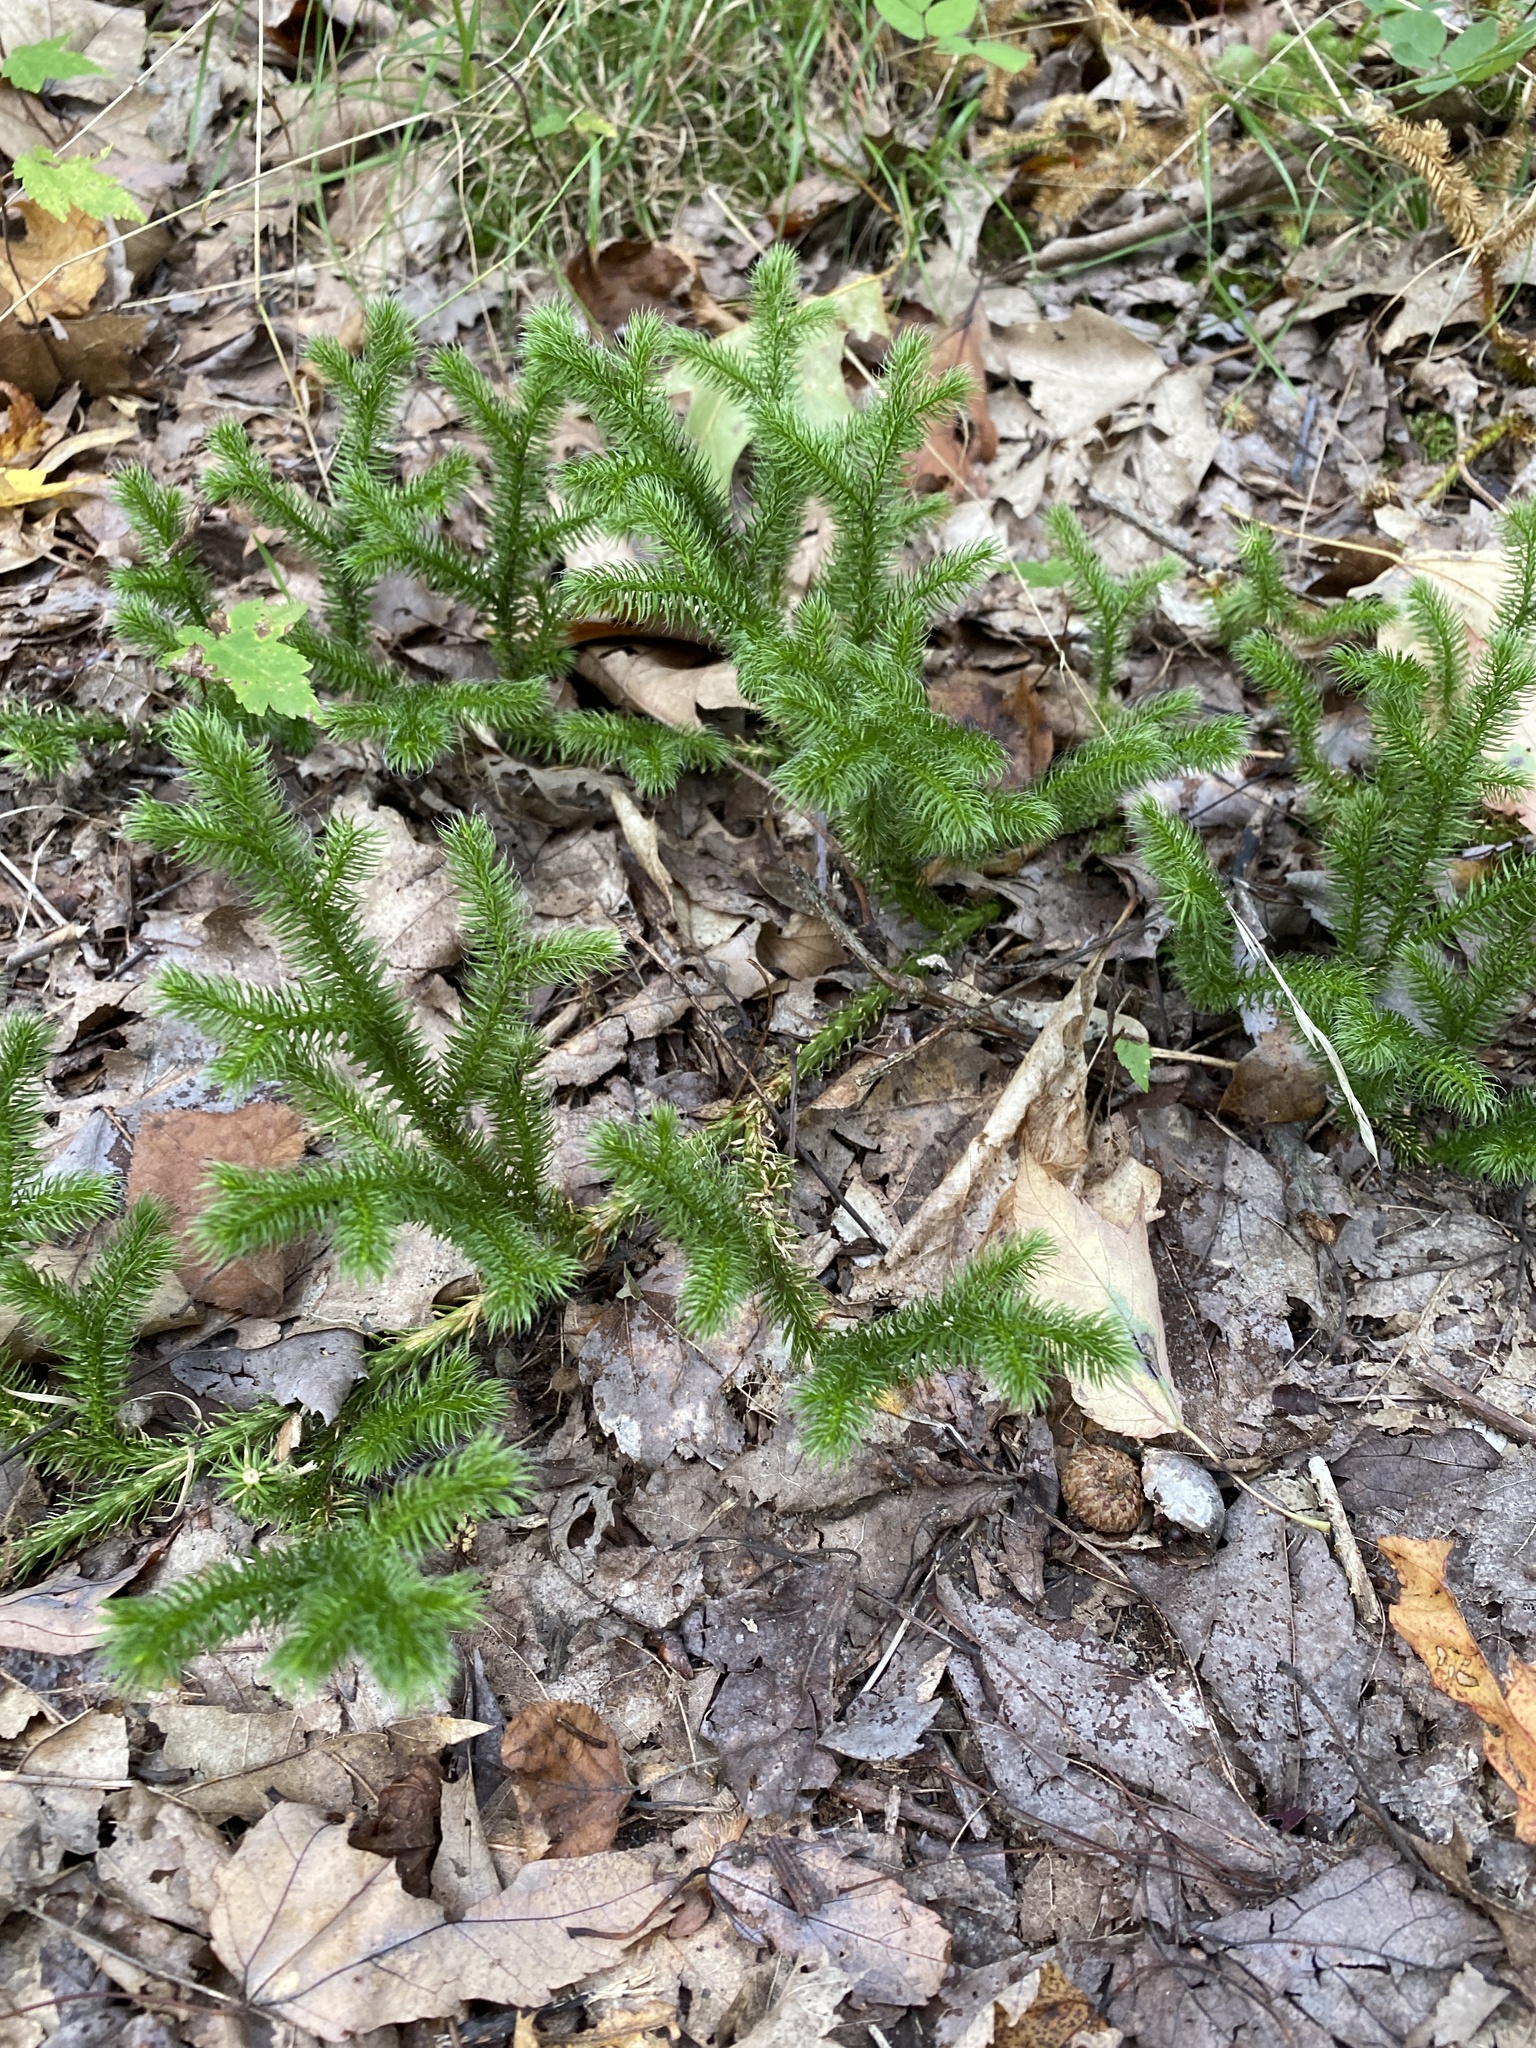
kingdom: Plantae
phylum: Tracheophyta
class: Lycopodiopsida
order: Lycopodiales
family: Lycopodiaceae
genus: Lycopodium
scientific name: Lycopodium clavatum
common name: Stag's-horn clubmoss
